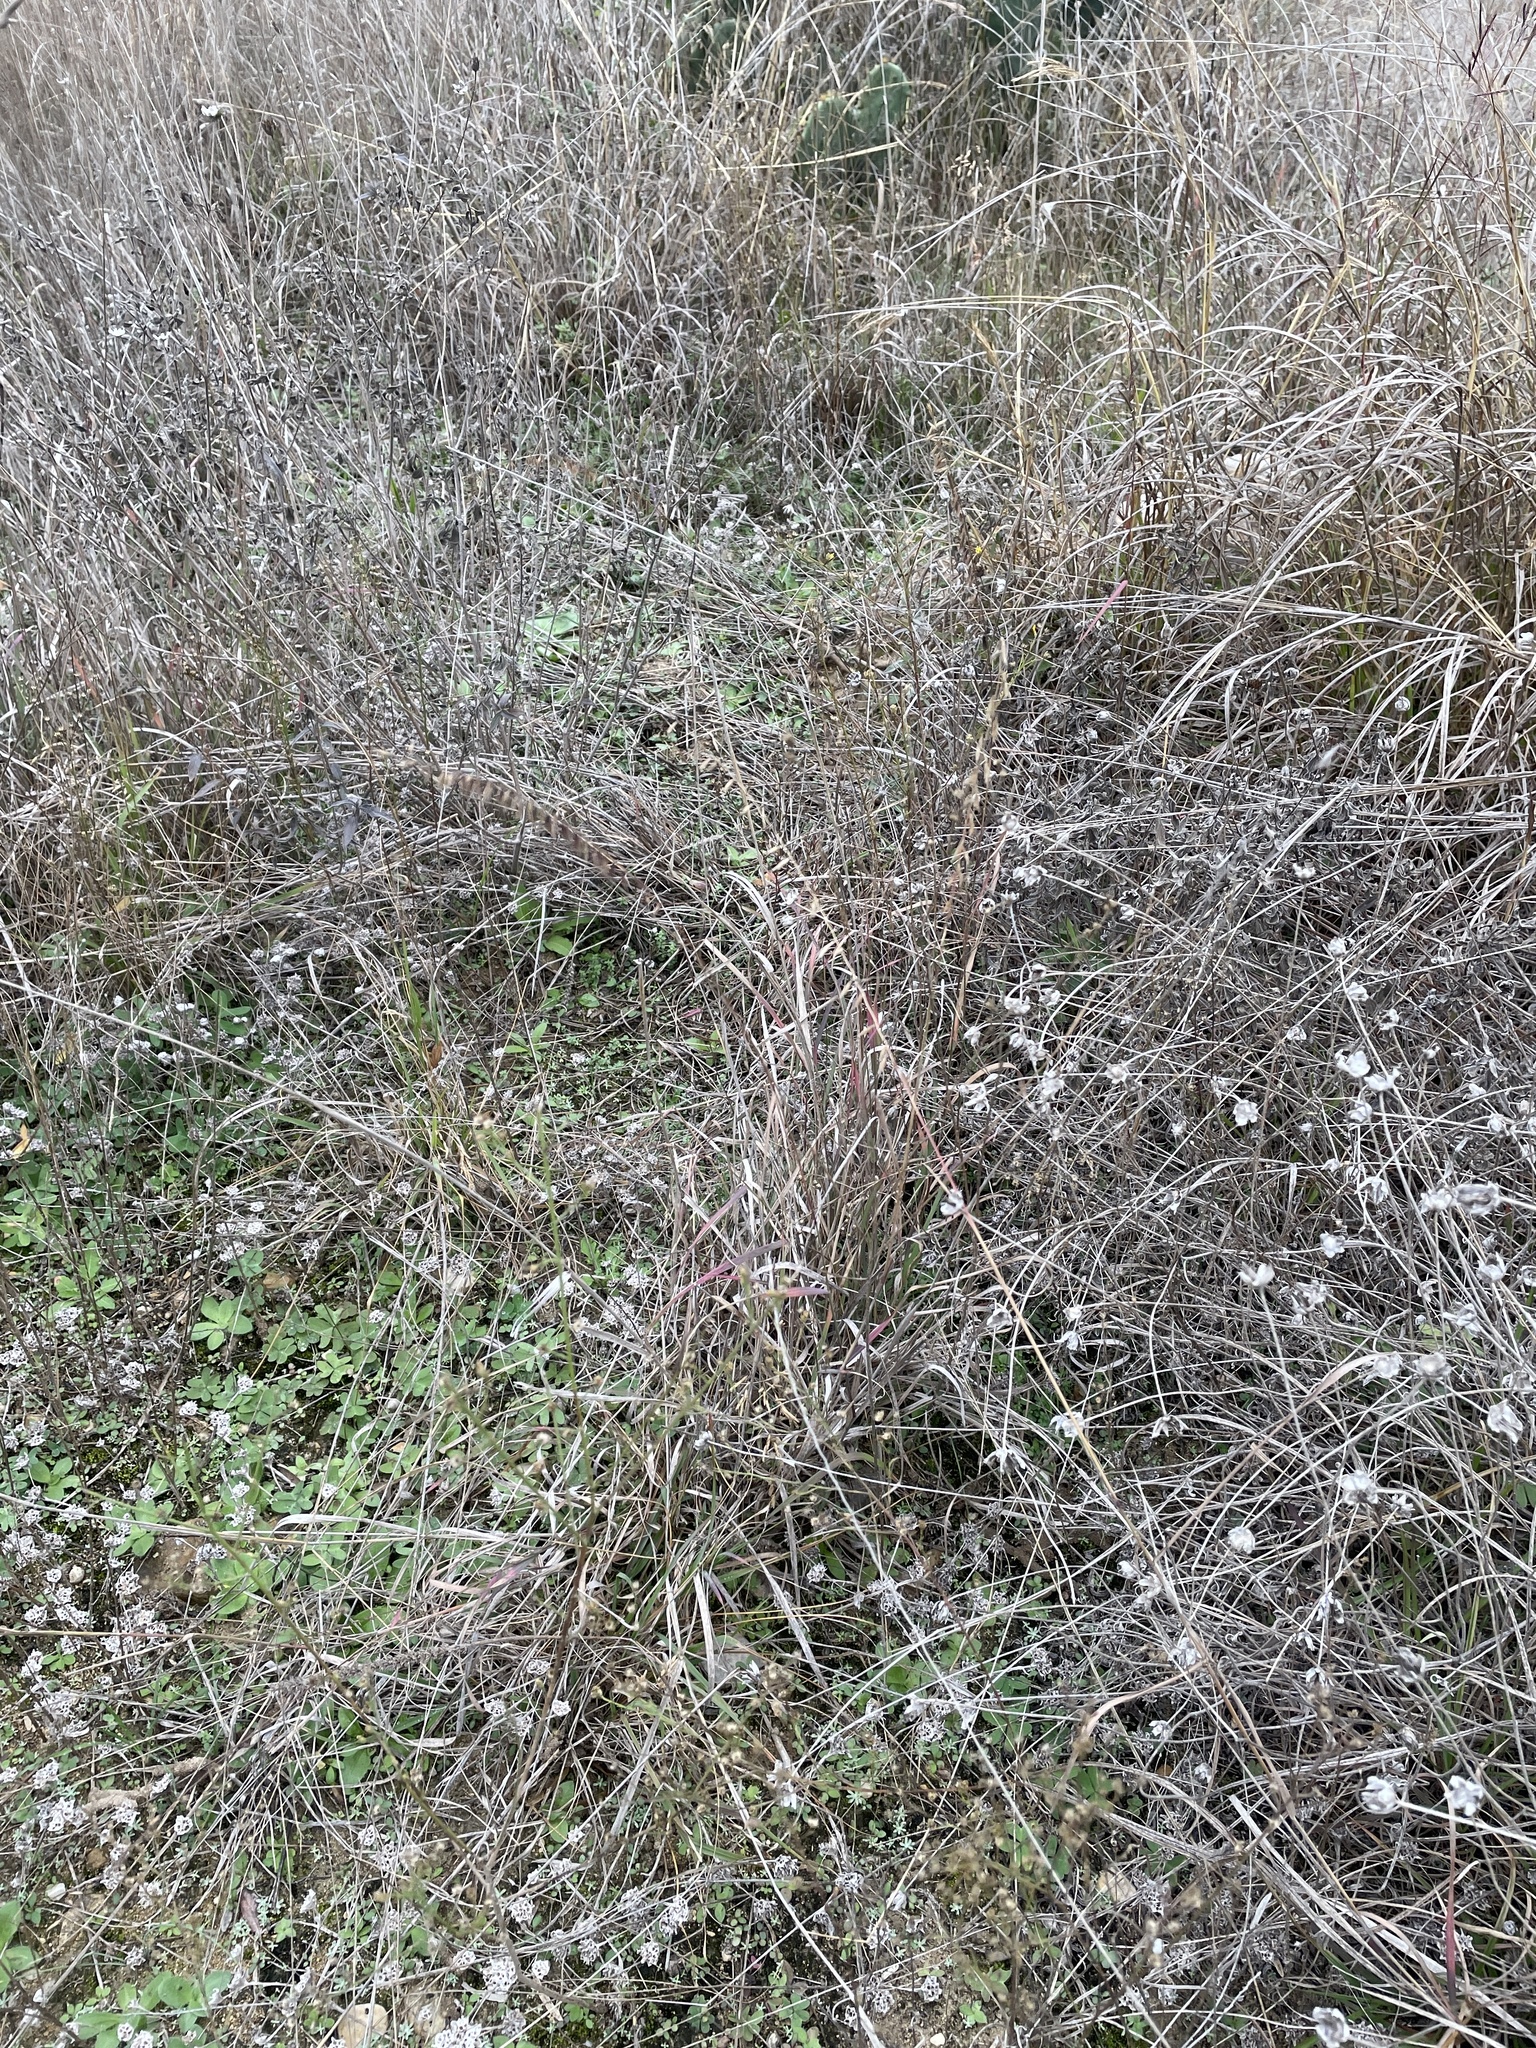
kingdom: Plantae
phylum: Tracheophyta
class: Liliopsida
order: Poales
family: Poaceae
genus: Bouteloua
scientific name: Bouteloua curtipendula
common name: Side-oats grama
